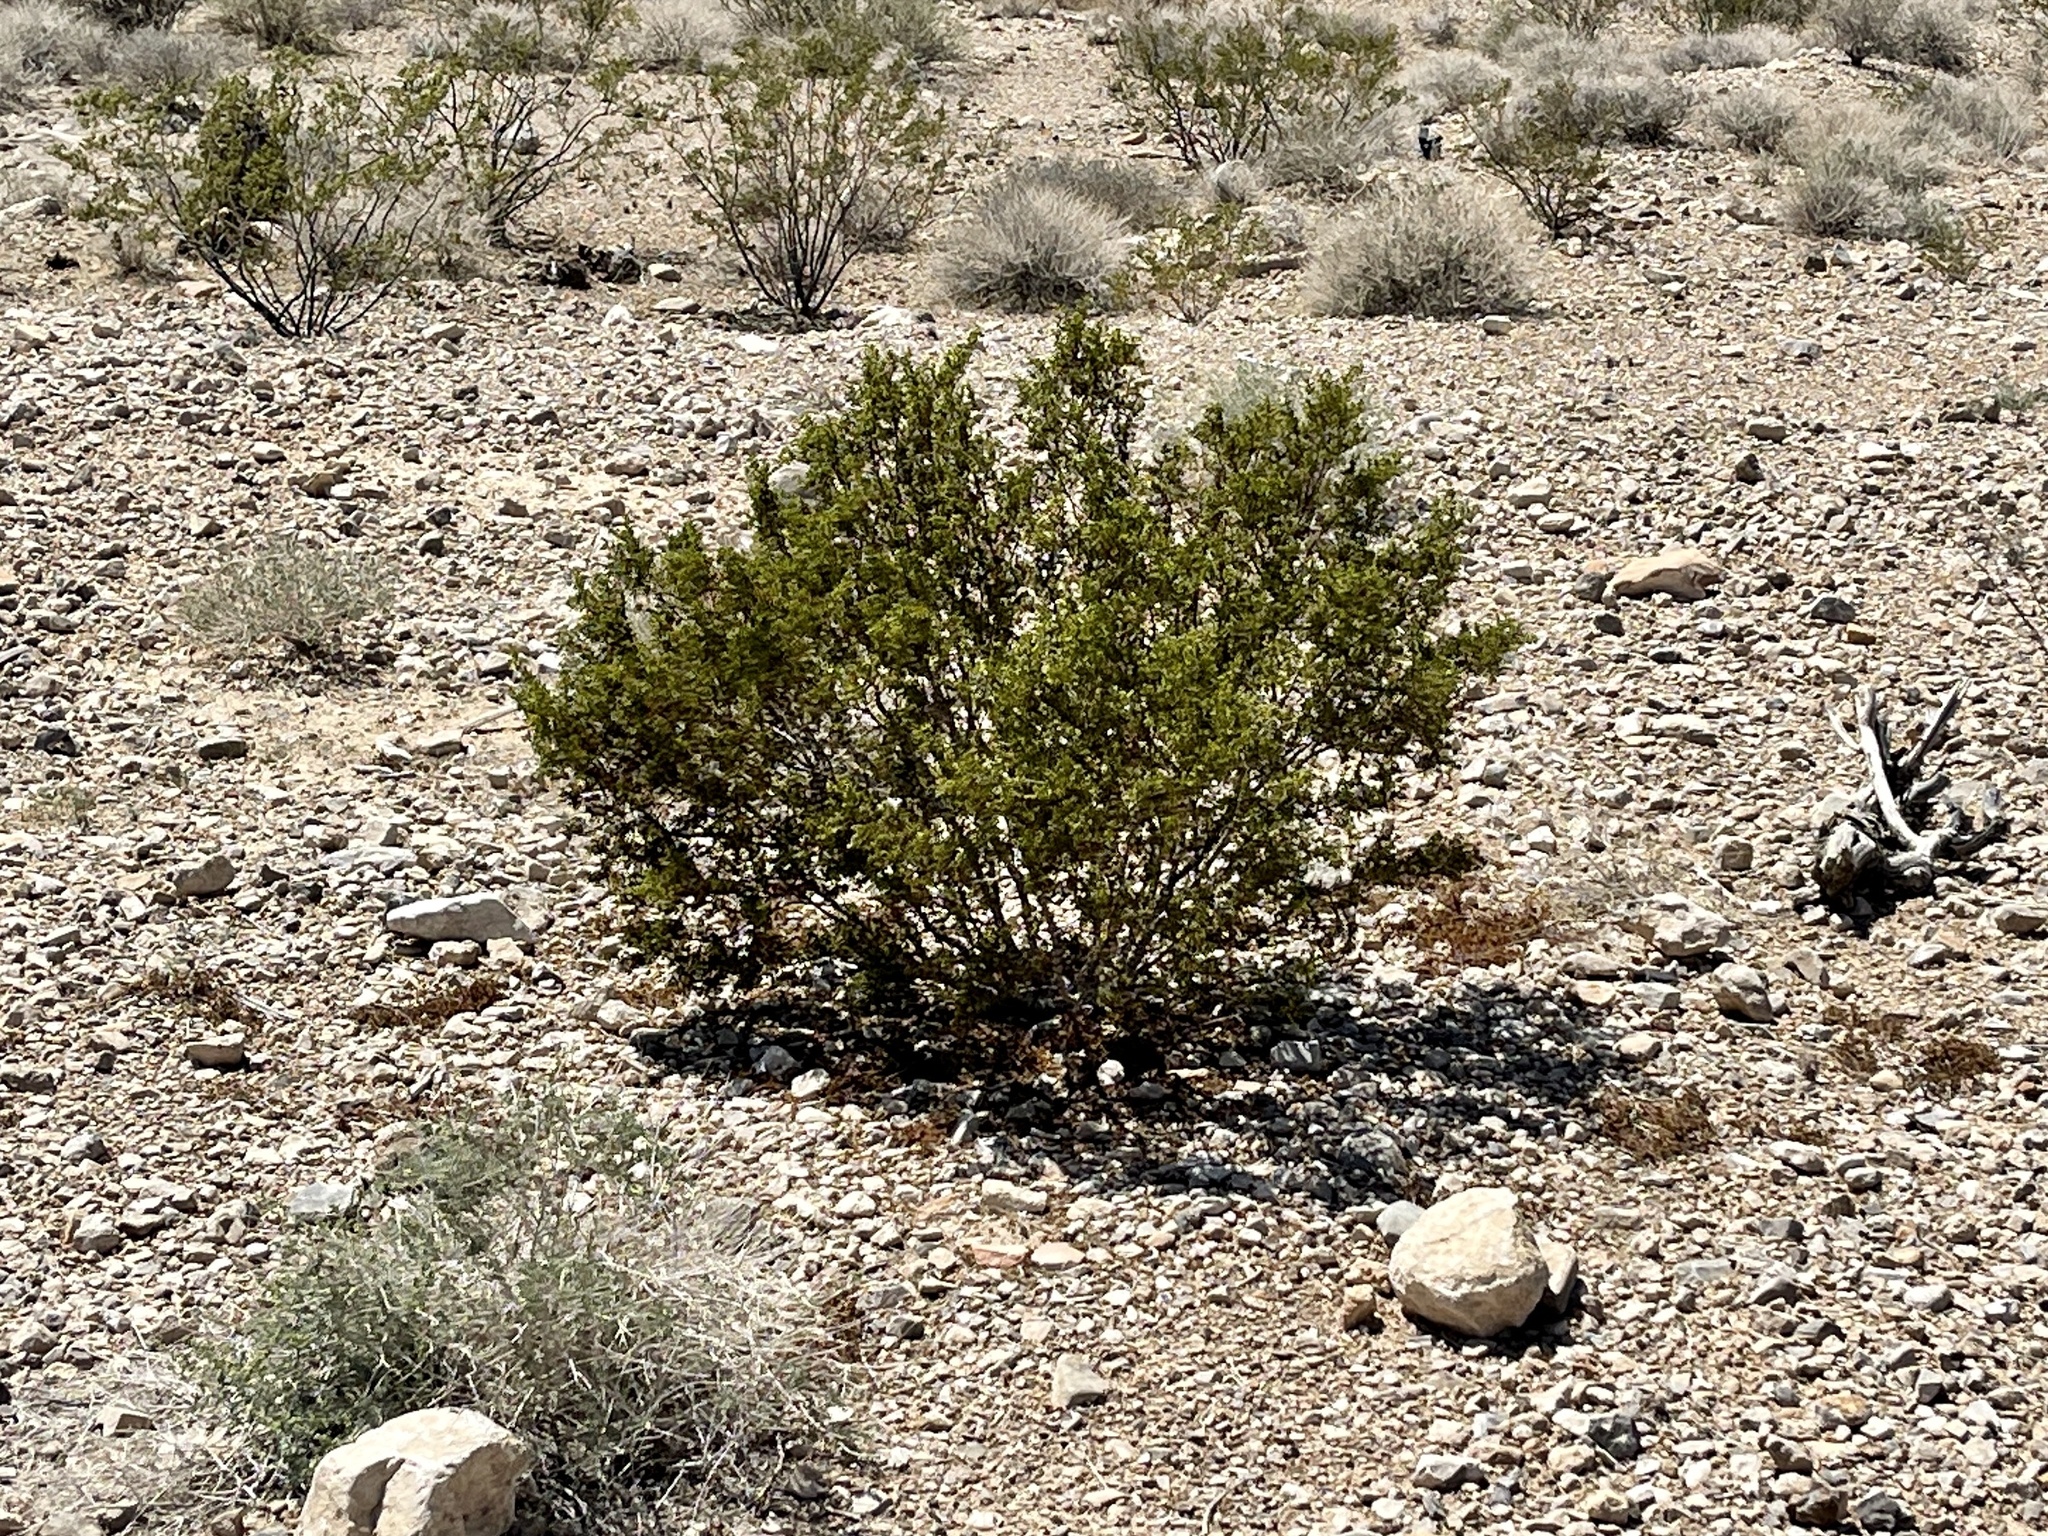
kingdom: Plantae
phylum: Tracheophyta
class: Magnoliopsida
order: Zygophyllales
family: Zygophyllaceae
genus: Larrea
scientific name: Larrea tridentata
